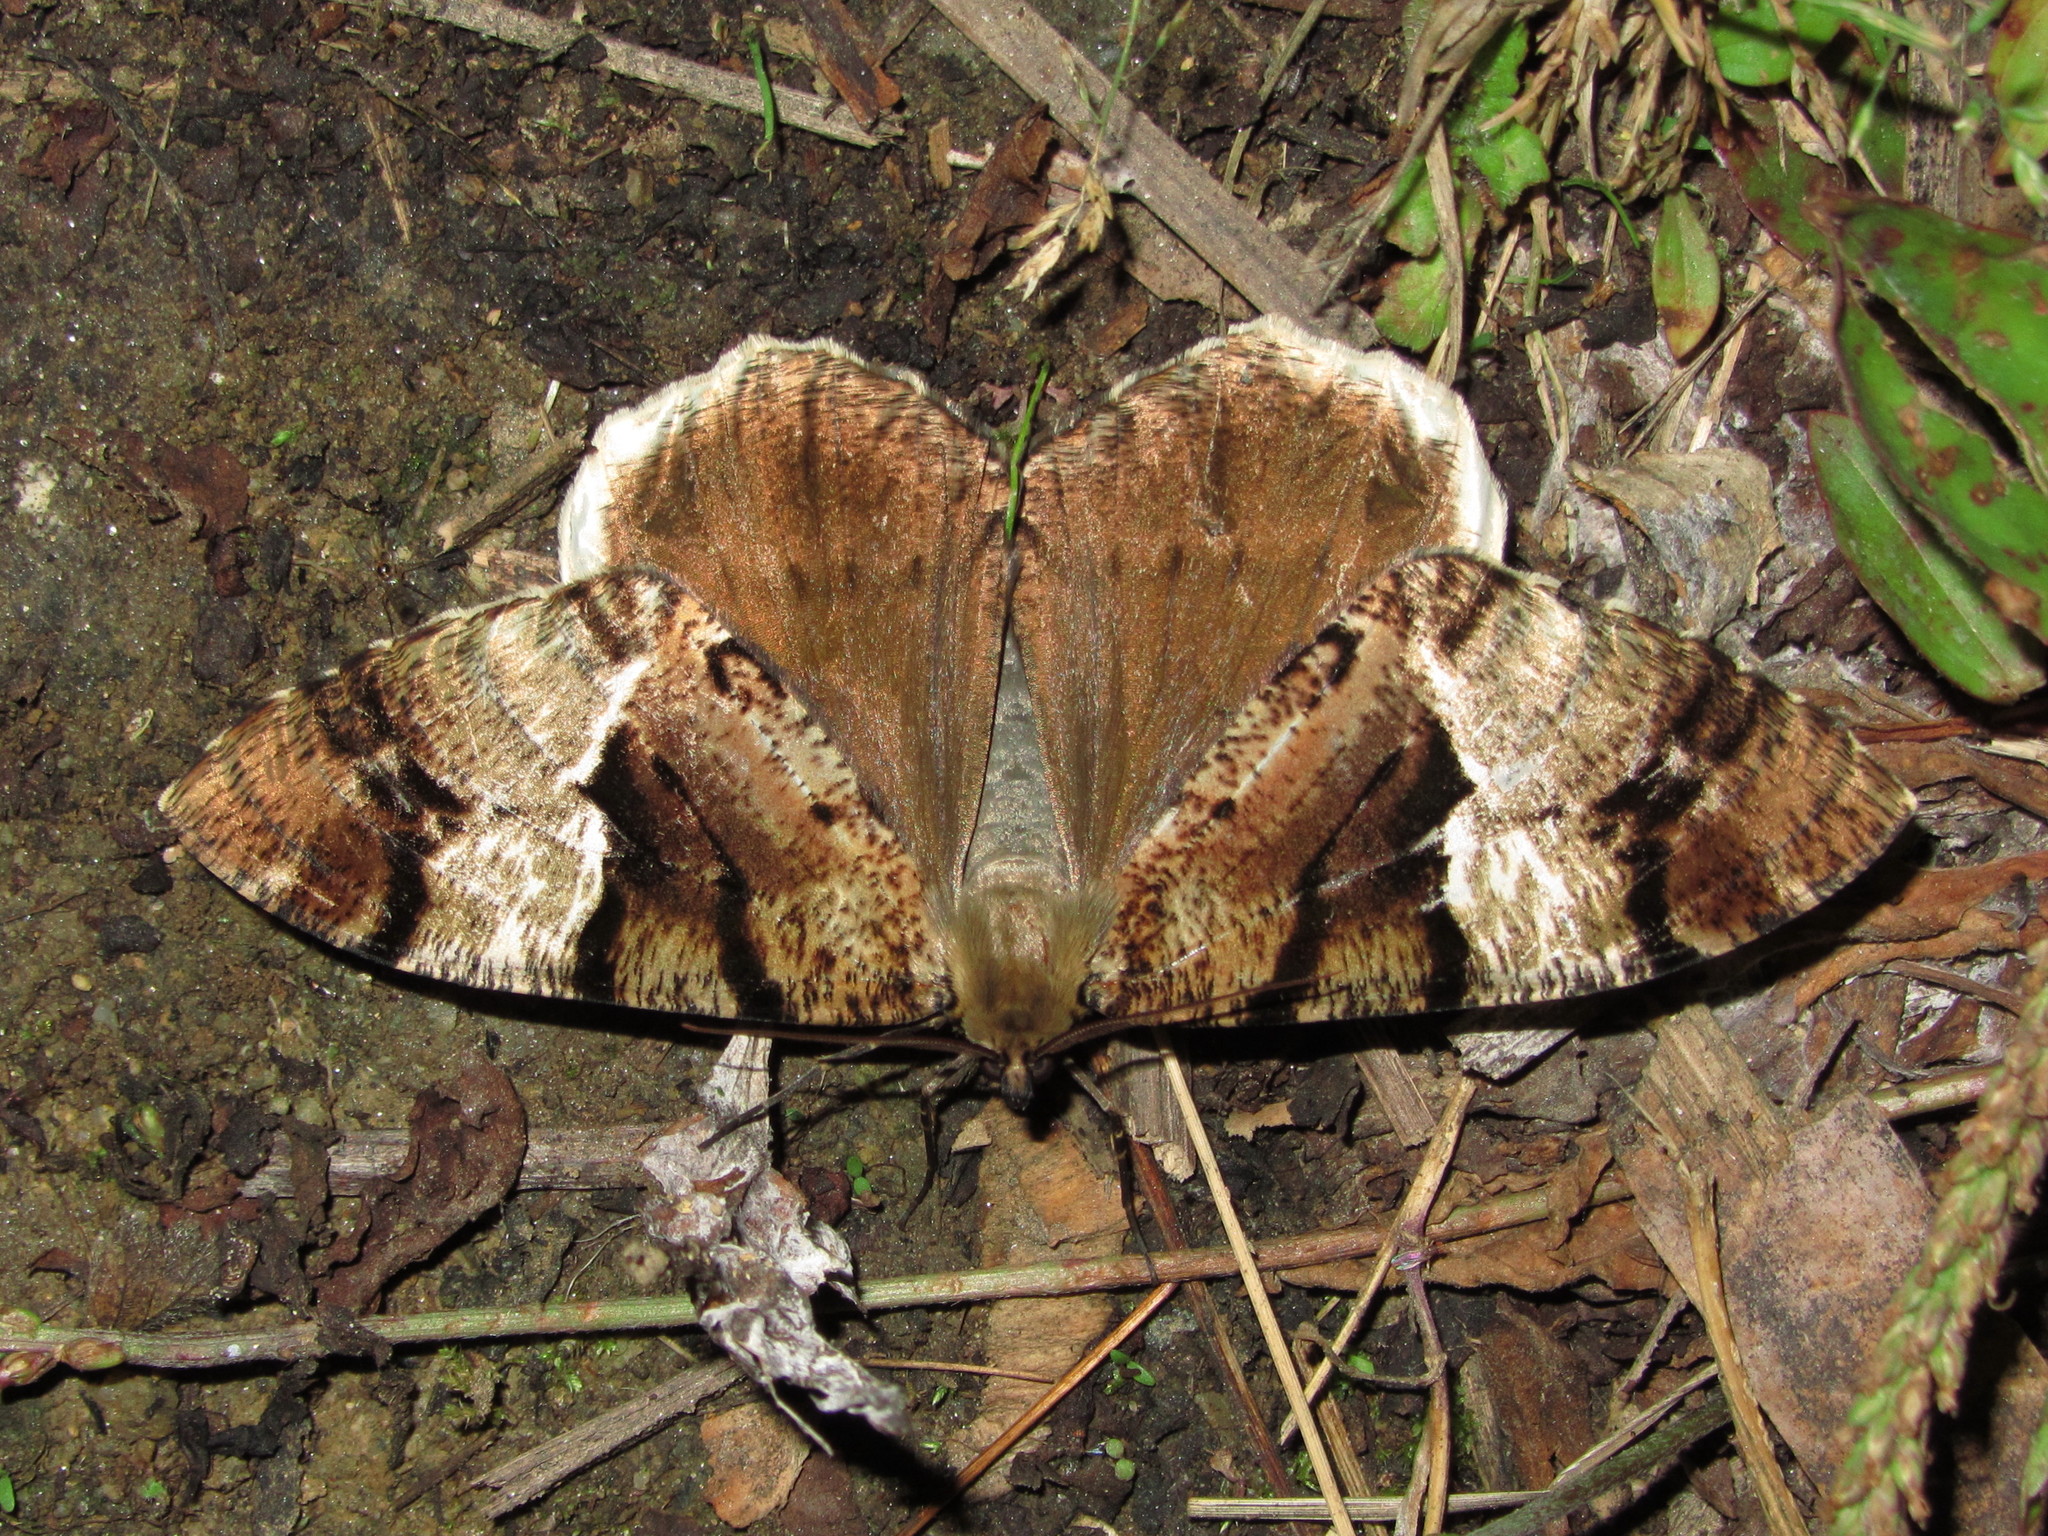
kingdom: Animalia
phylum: Arthropoda
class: Insecta
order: Lepidoptera
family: Geometridae
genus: Xandrames
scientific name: Xandrames dholaria
